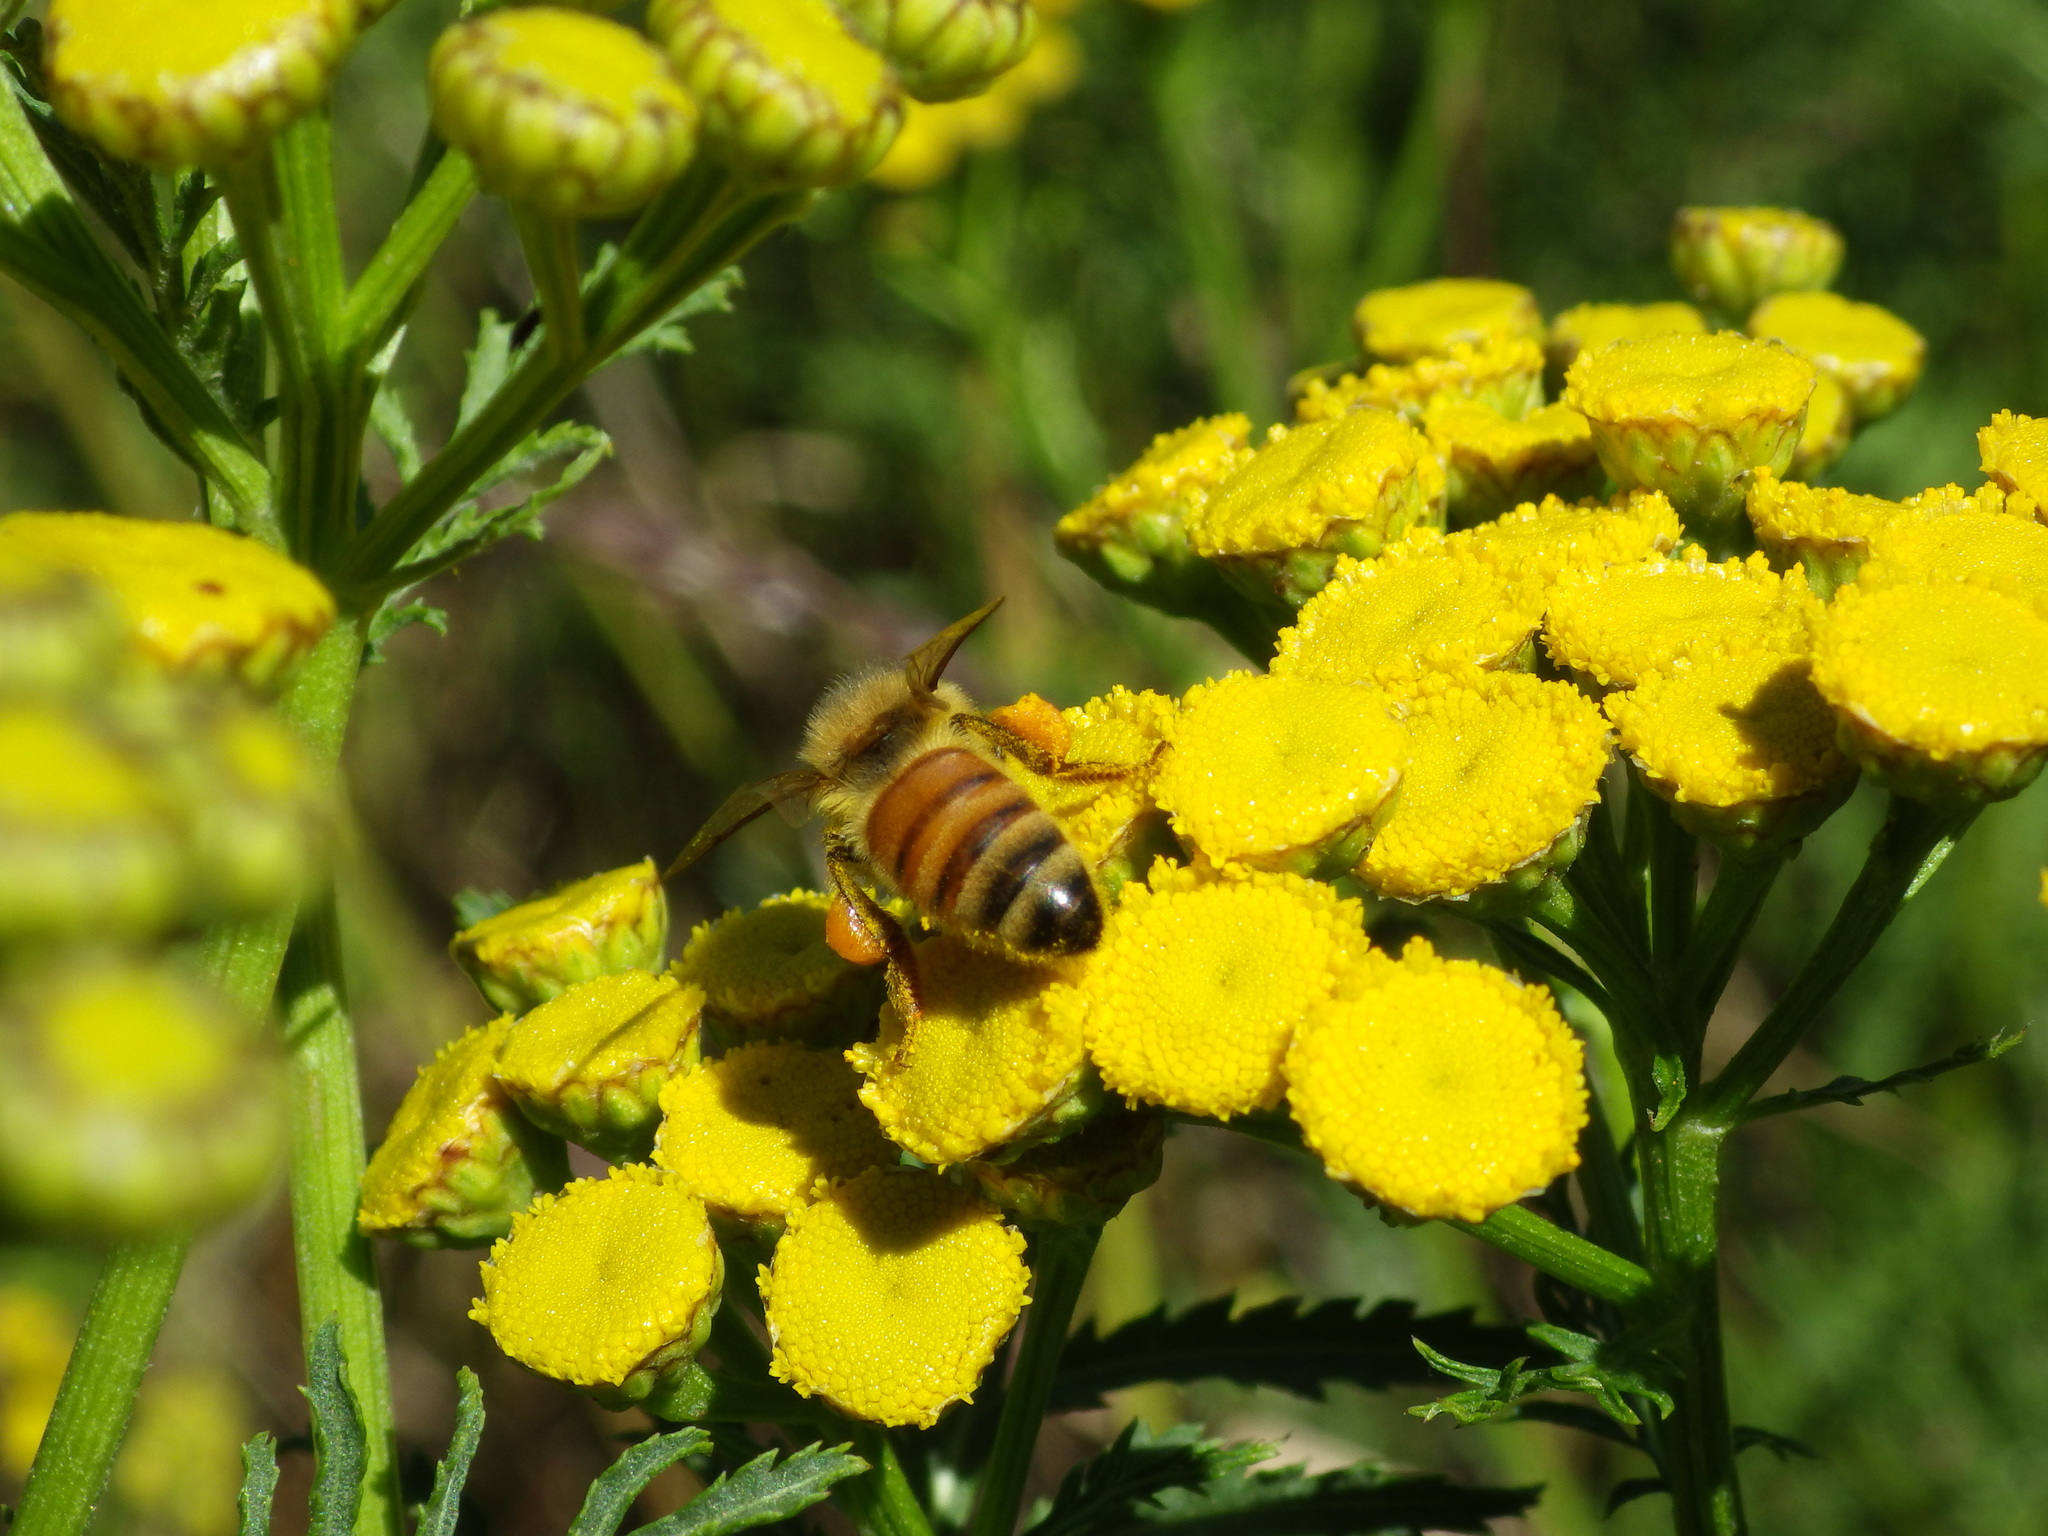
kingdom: Animalia
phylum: Arthropoda
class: Insecta
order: Hymenoptera
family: Apidae
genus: Apis
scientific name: Apis mellifera
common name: Honey bee
